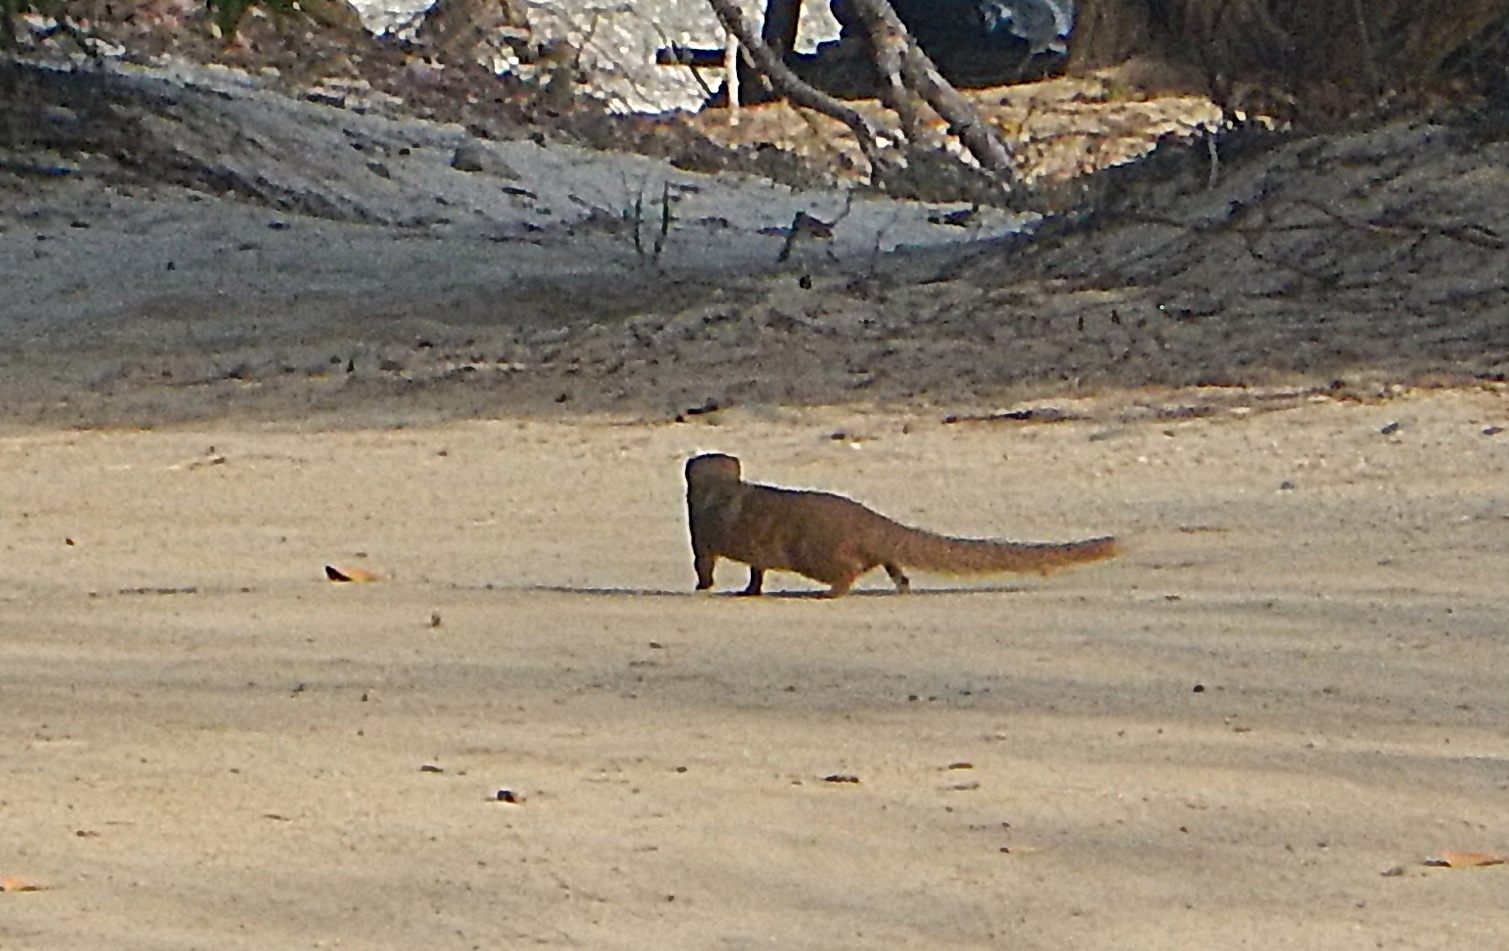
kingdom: Animalia
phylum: Chordata
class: Mammalia
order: Carnivora
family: Herpestidae
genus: Herpestes
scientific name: Herpestes javanicus
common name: Small asian mongoose
